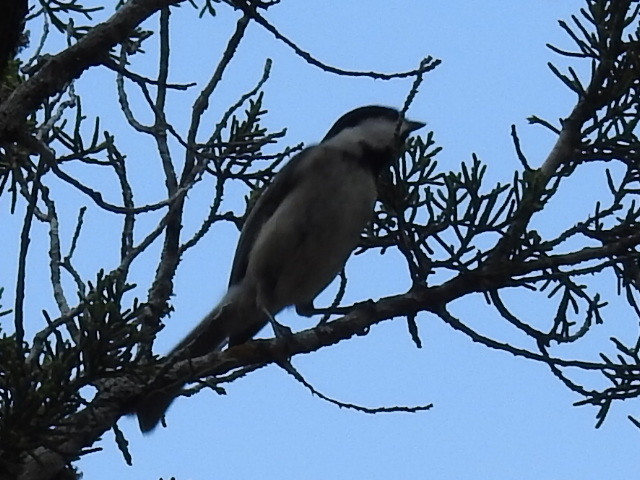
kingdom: Animalia
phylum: Chordata
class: Aves
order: Passeriformes
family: Paridae
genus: Poecile
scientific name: Poecile carolinensis
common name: Carolina chickadee
